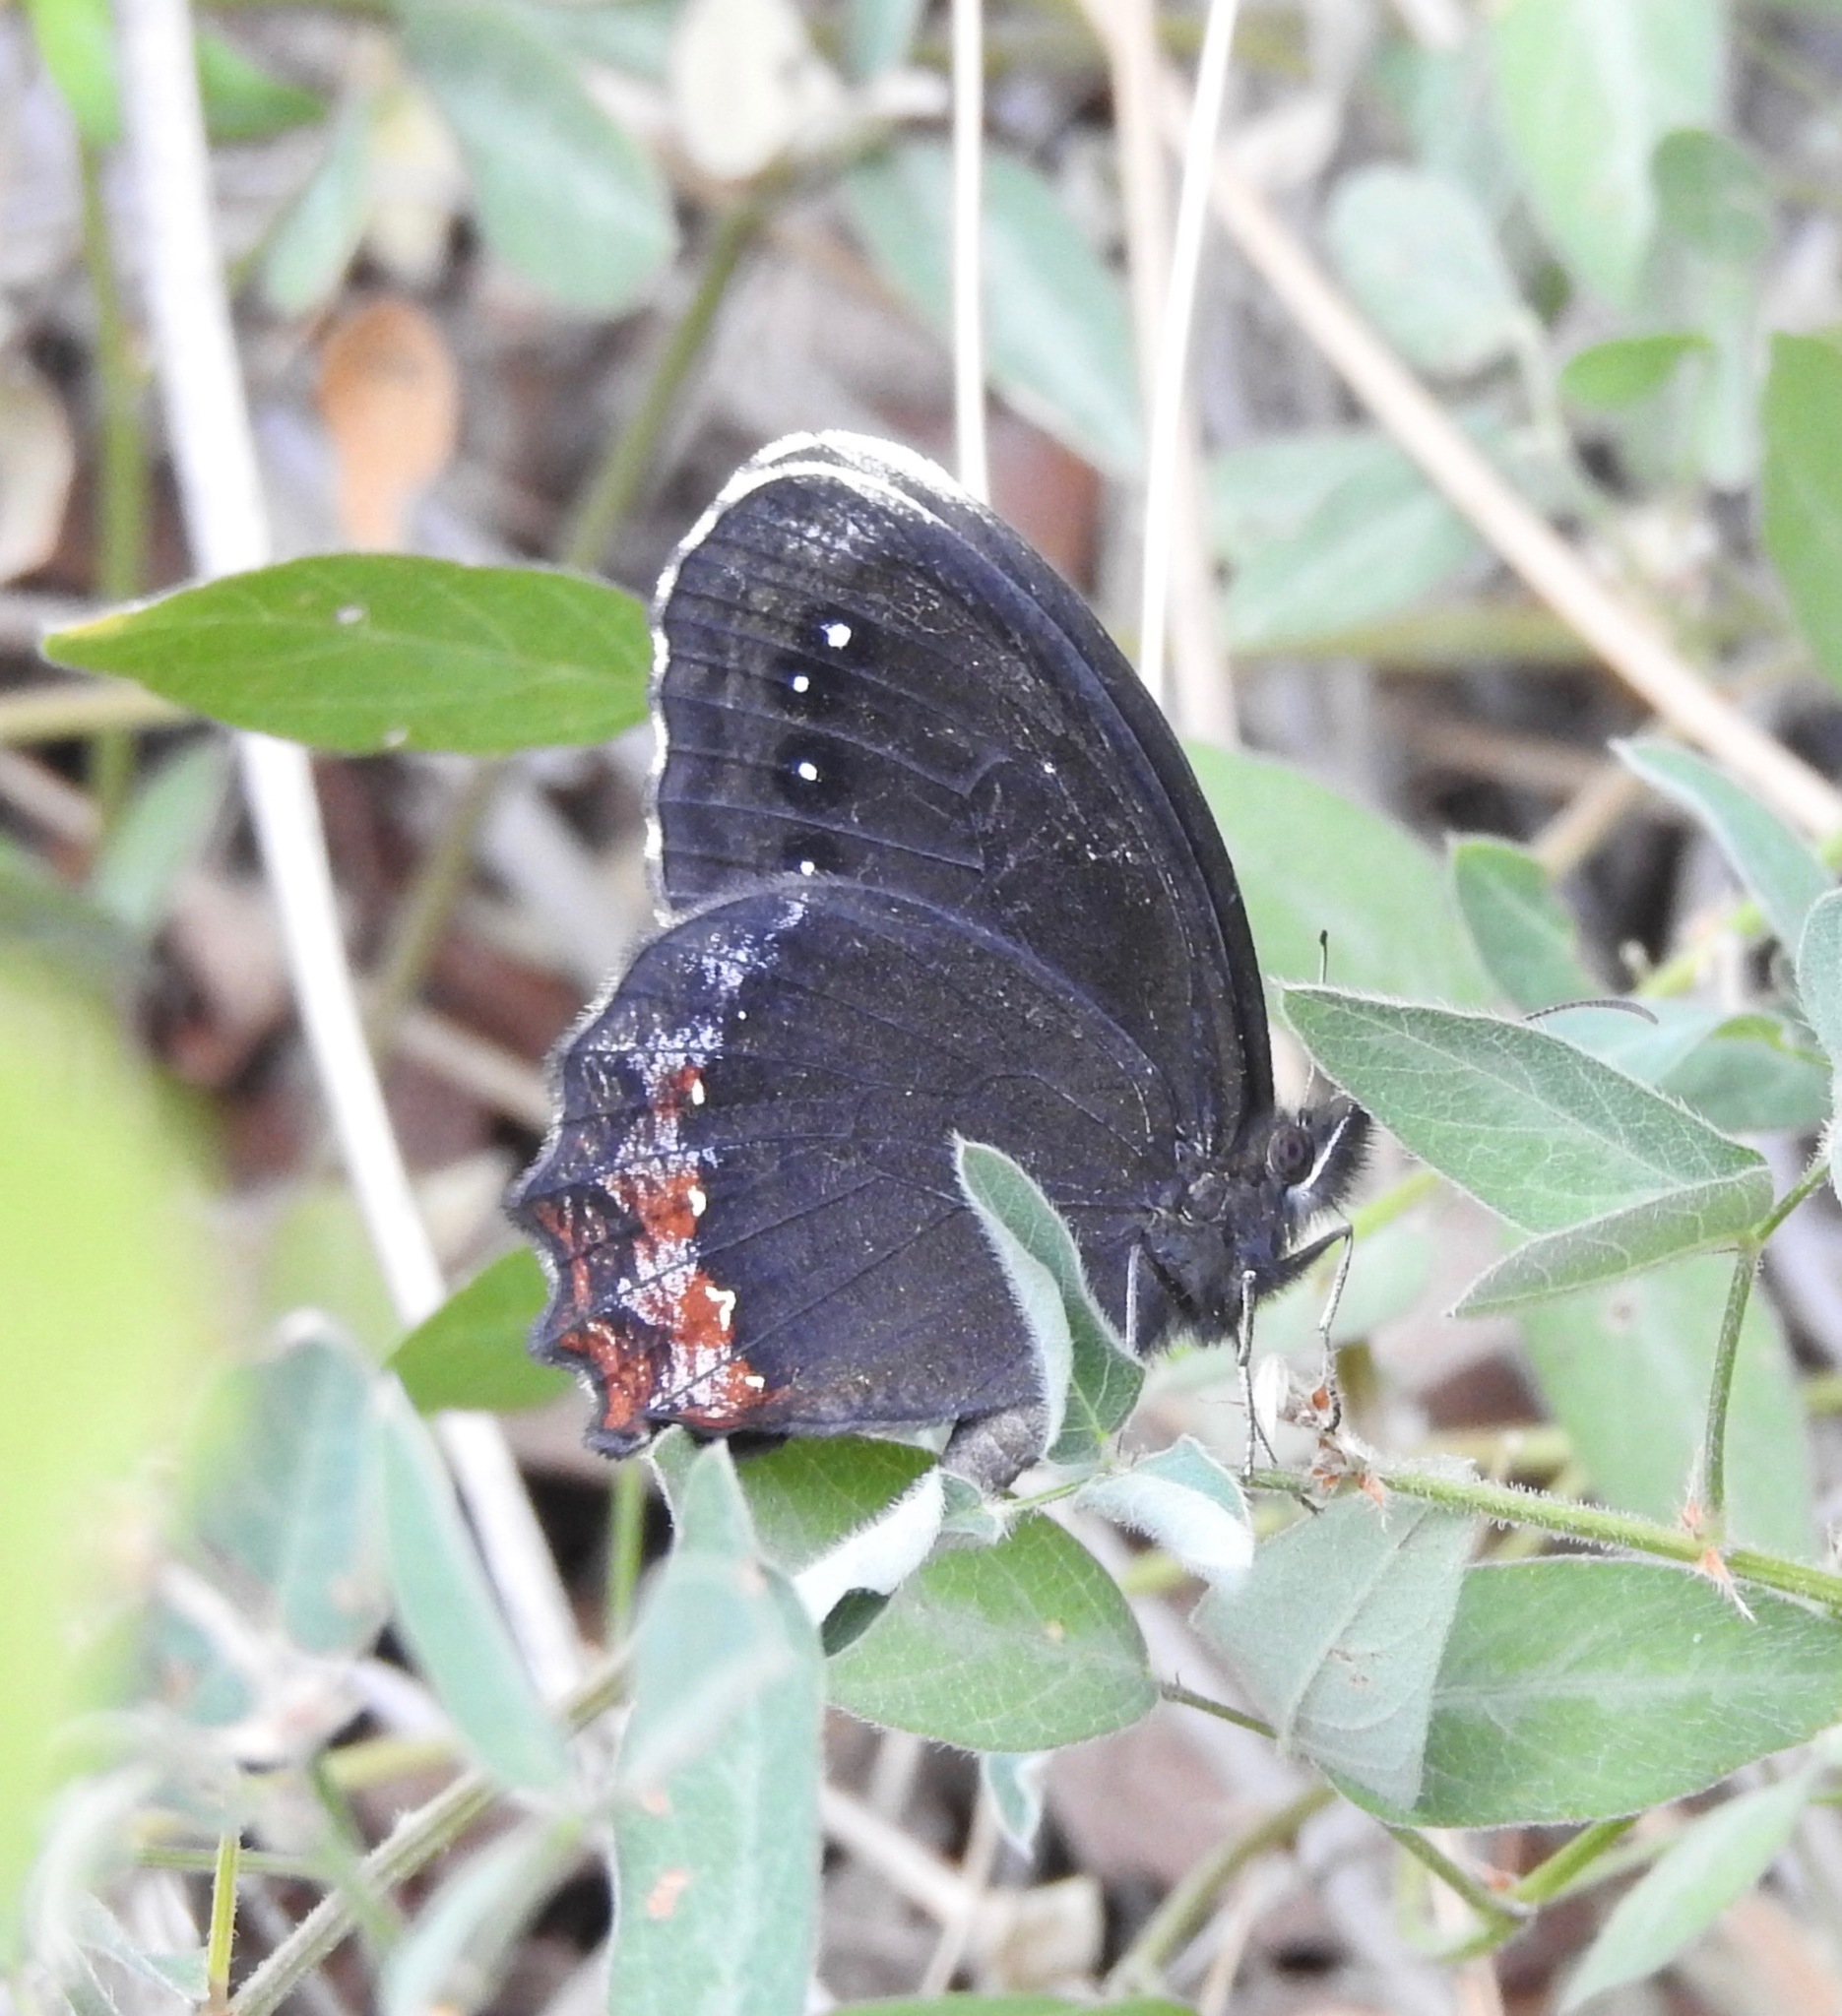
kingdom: Animalia
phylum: Arthropoda
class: Insecta
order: Lepidoptera
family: Nymphalidae
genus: Gyrocheilus
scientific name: Gyrocheilus patrobas
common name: Red-bordered satyr
